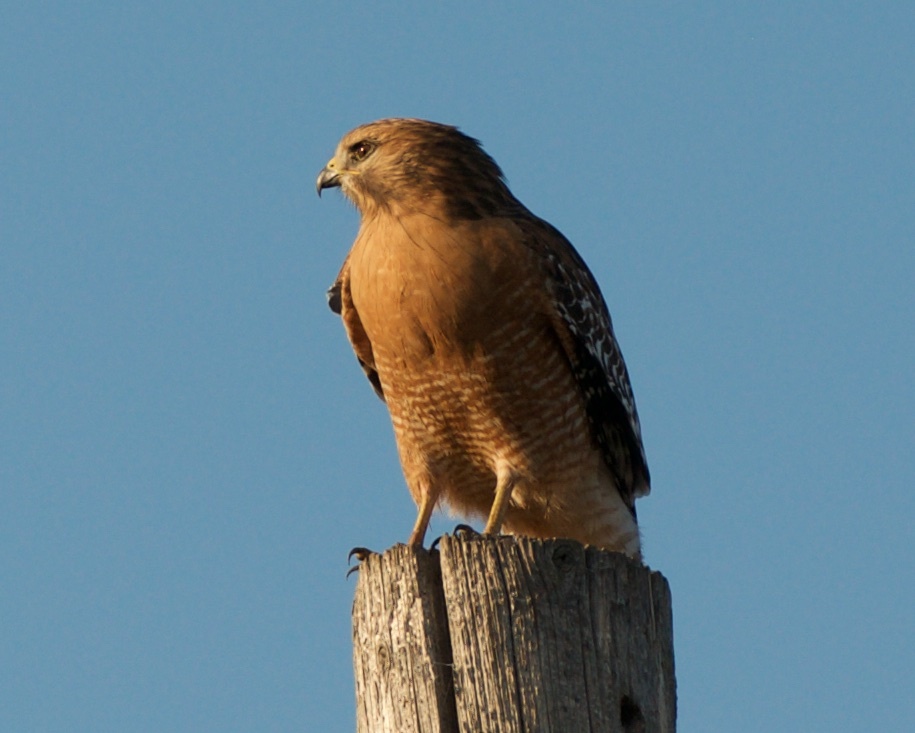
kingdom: Animalia
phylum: Chordata
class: Aves
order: Accipitriformes
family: Accipitridae
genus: Buteo
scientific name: Buteo lineatus
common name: Red-shouldered hawk
